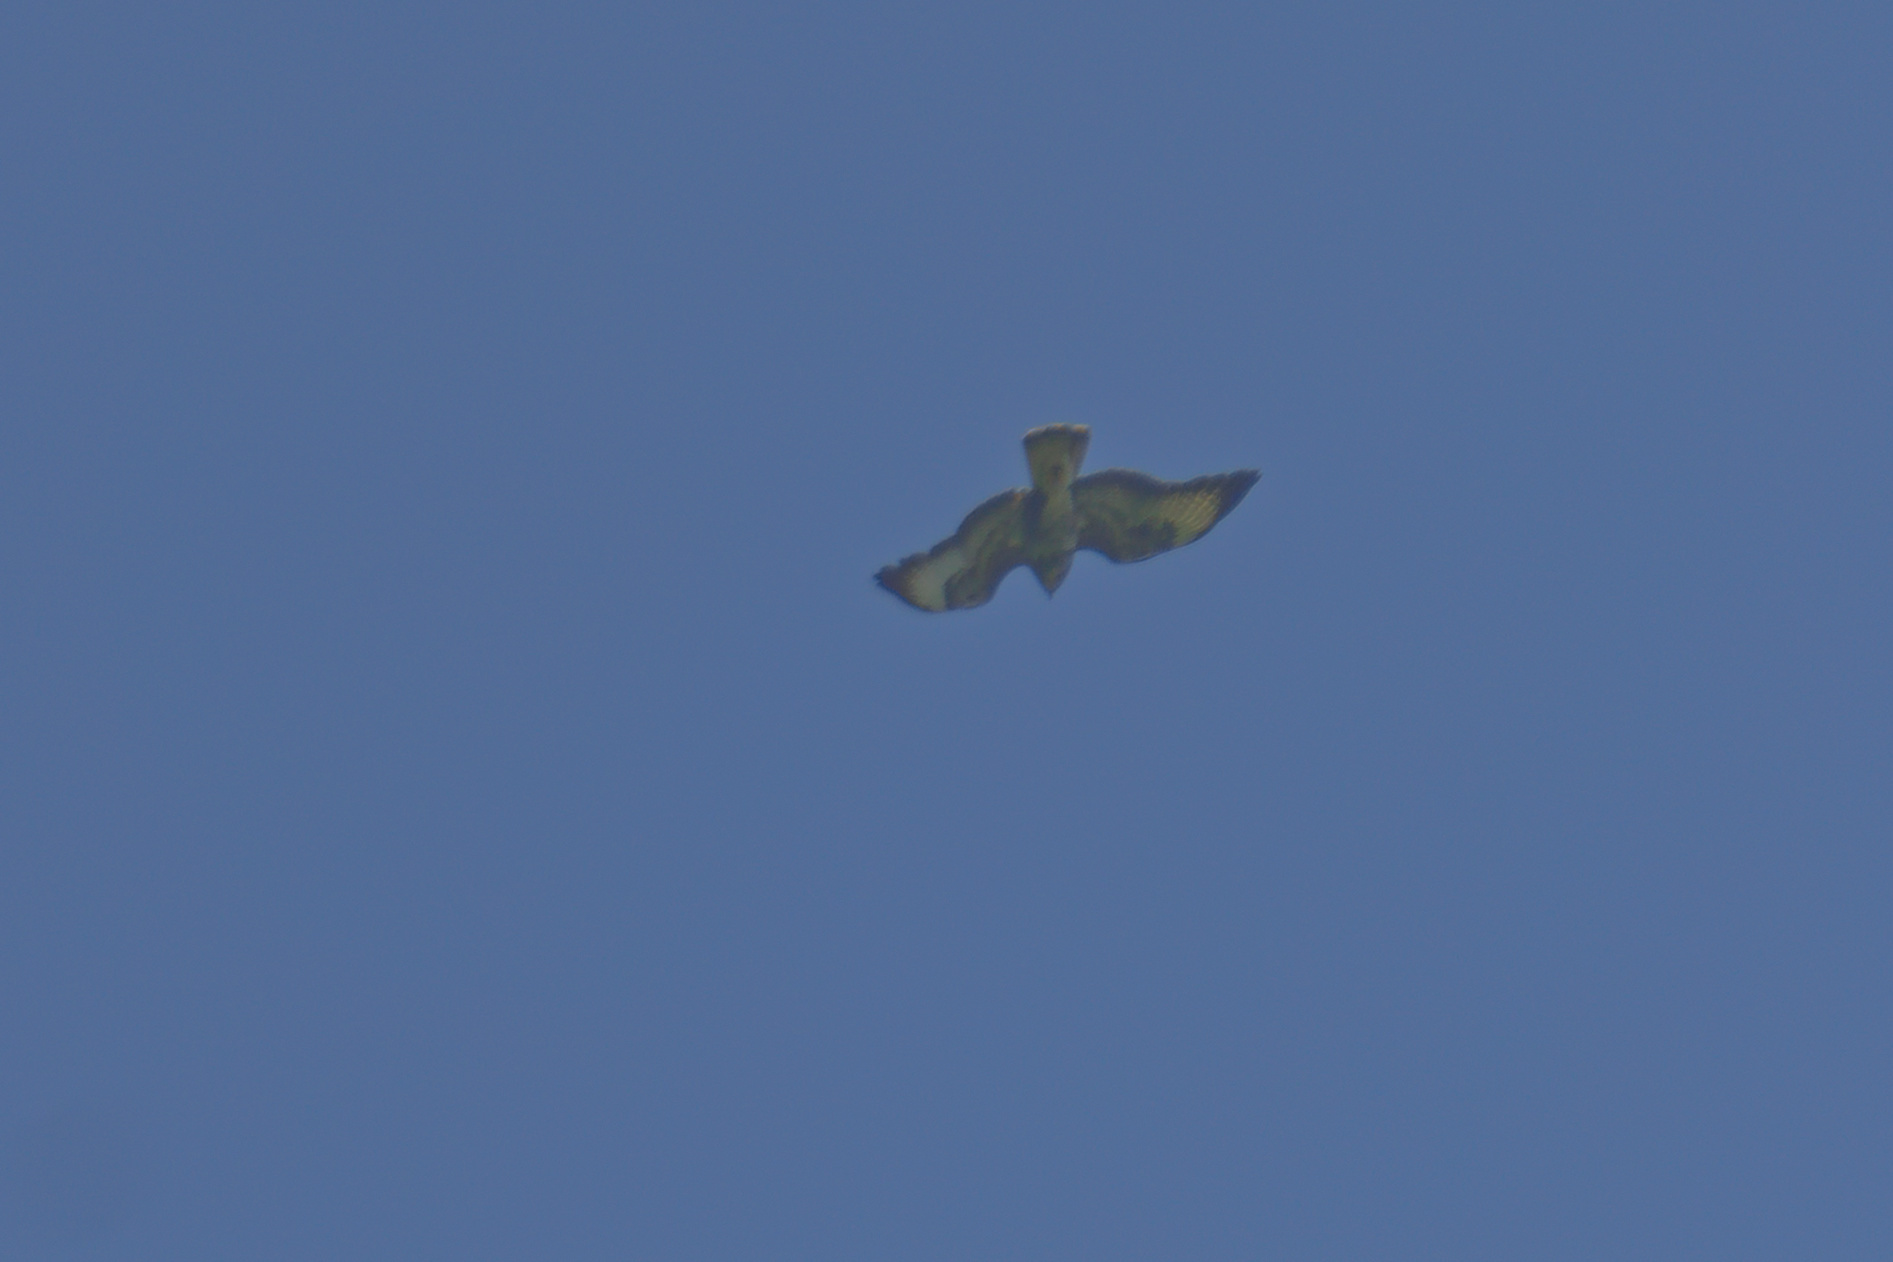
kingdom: Animalia
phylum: Chordata
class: Aves
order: Accipitriformes
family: Accipitridae
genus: Buteo
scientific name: Buteo buteo
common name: Common buzzard
